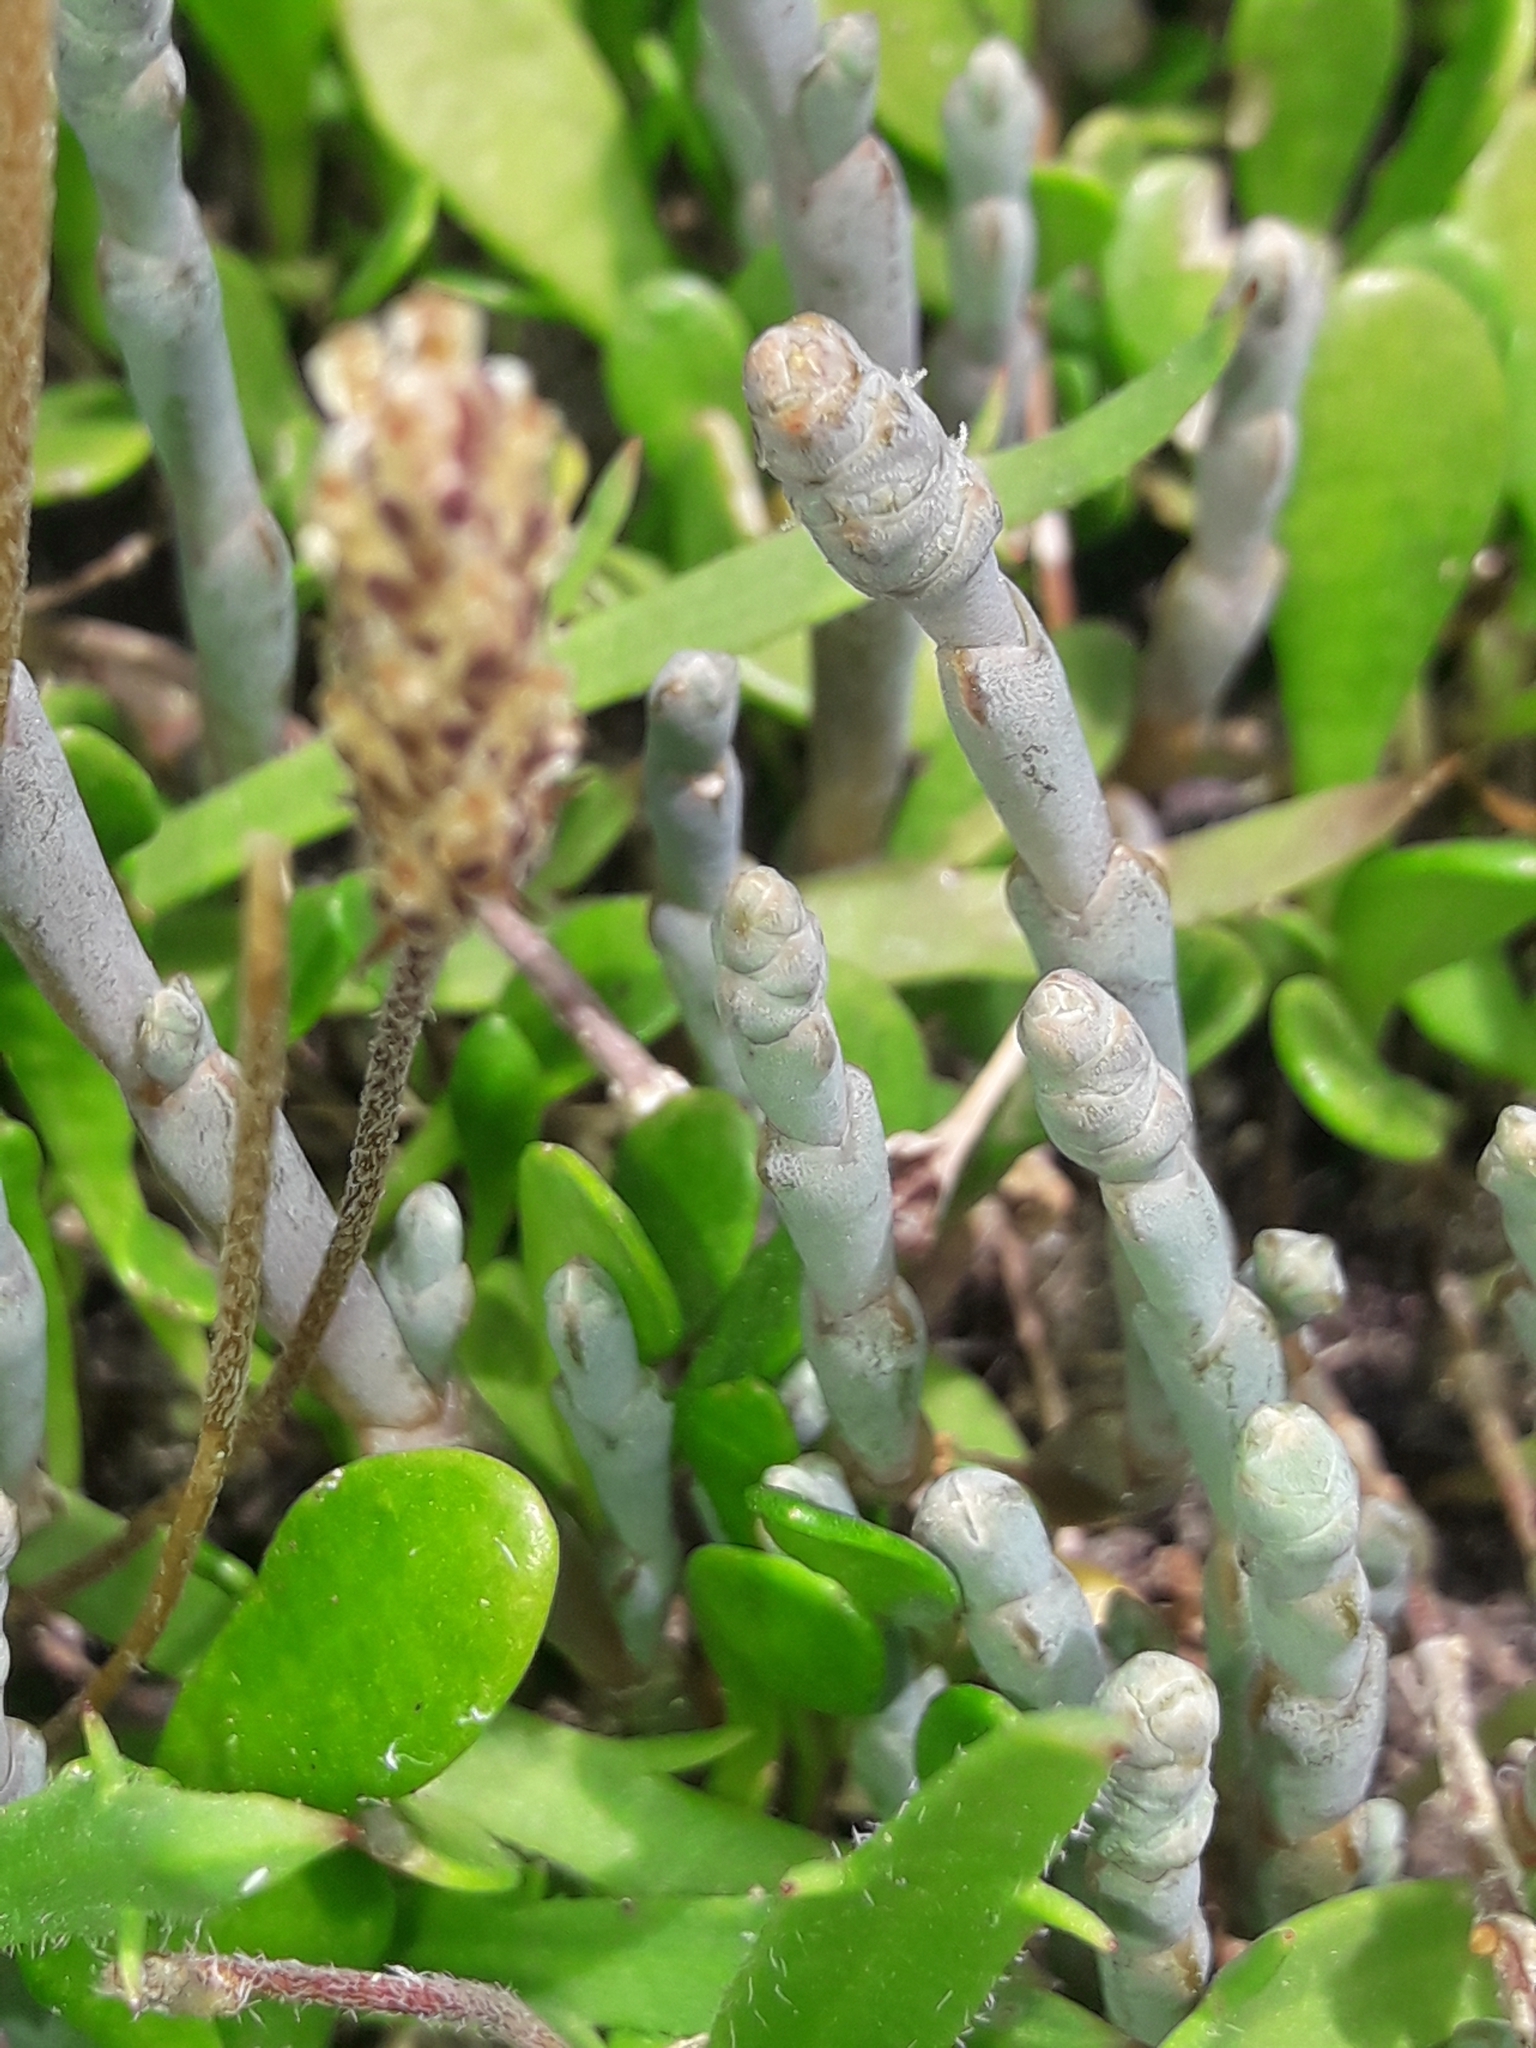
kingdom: Plantae
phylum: Tracheophyta
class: Magnoliopsida
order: Caryophyllales
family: Amaranthaceae
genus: Salicornia
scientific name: Salicornia quinqueflora
